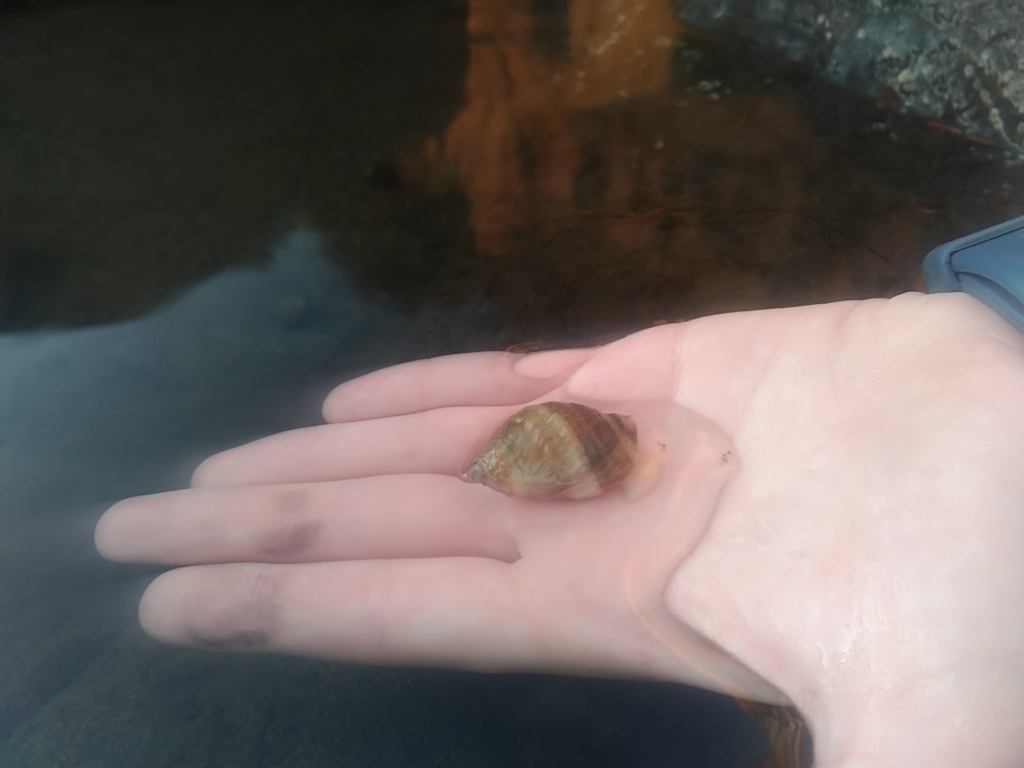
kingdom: Animalia
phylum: Mollusca
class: Gastropoda
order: Neogastropoda
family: Muricidae
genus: Nucella
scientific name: Nucella lapillus
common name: Dog whelk
